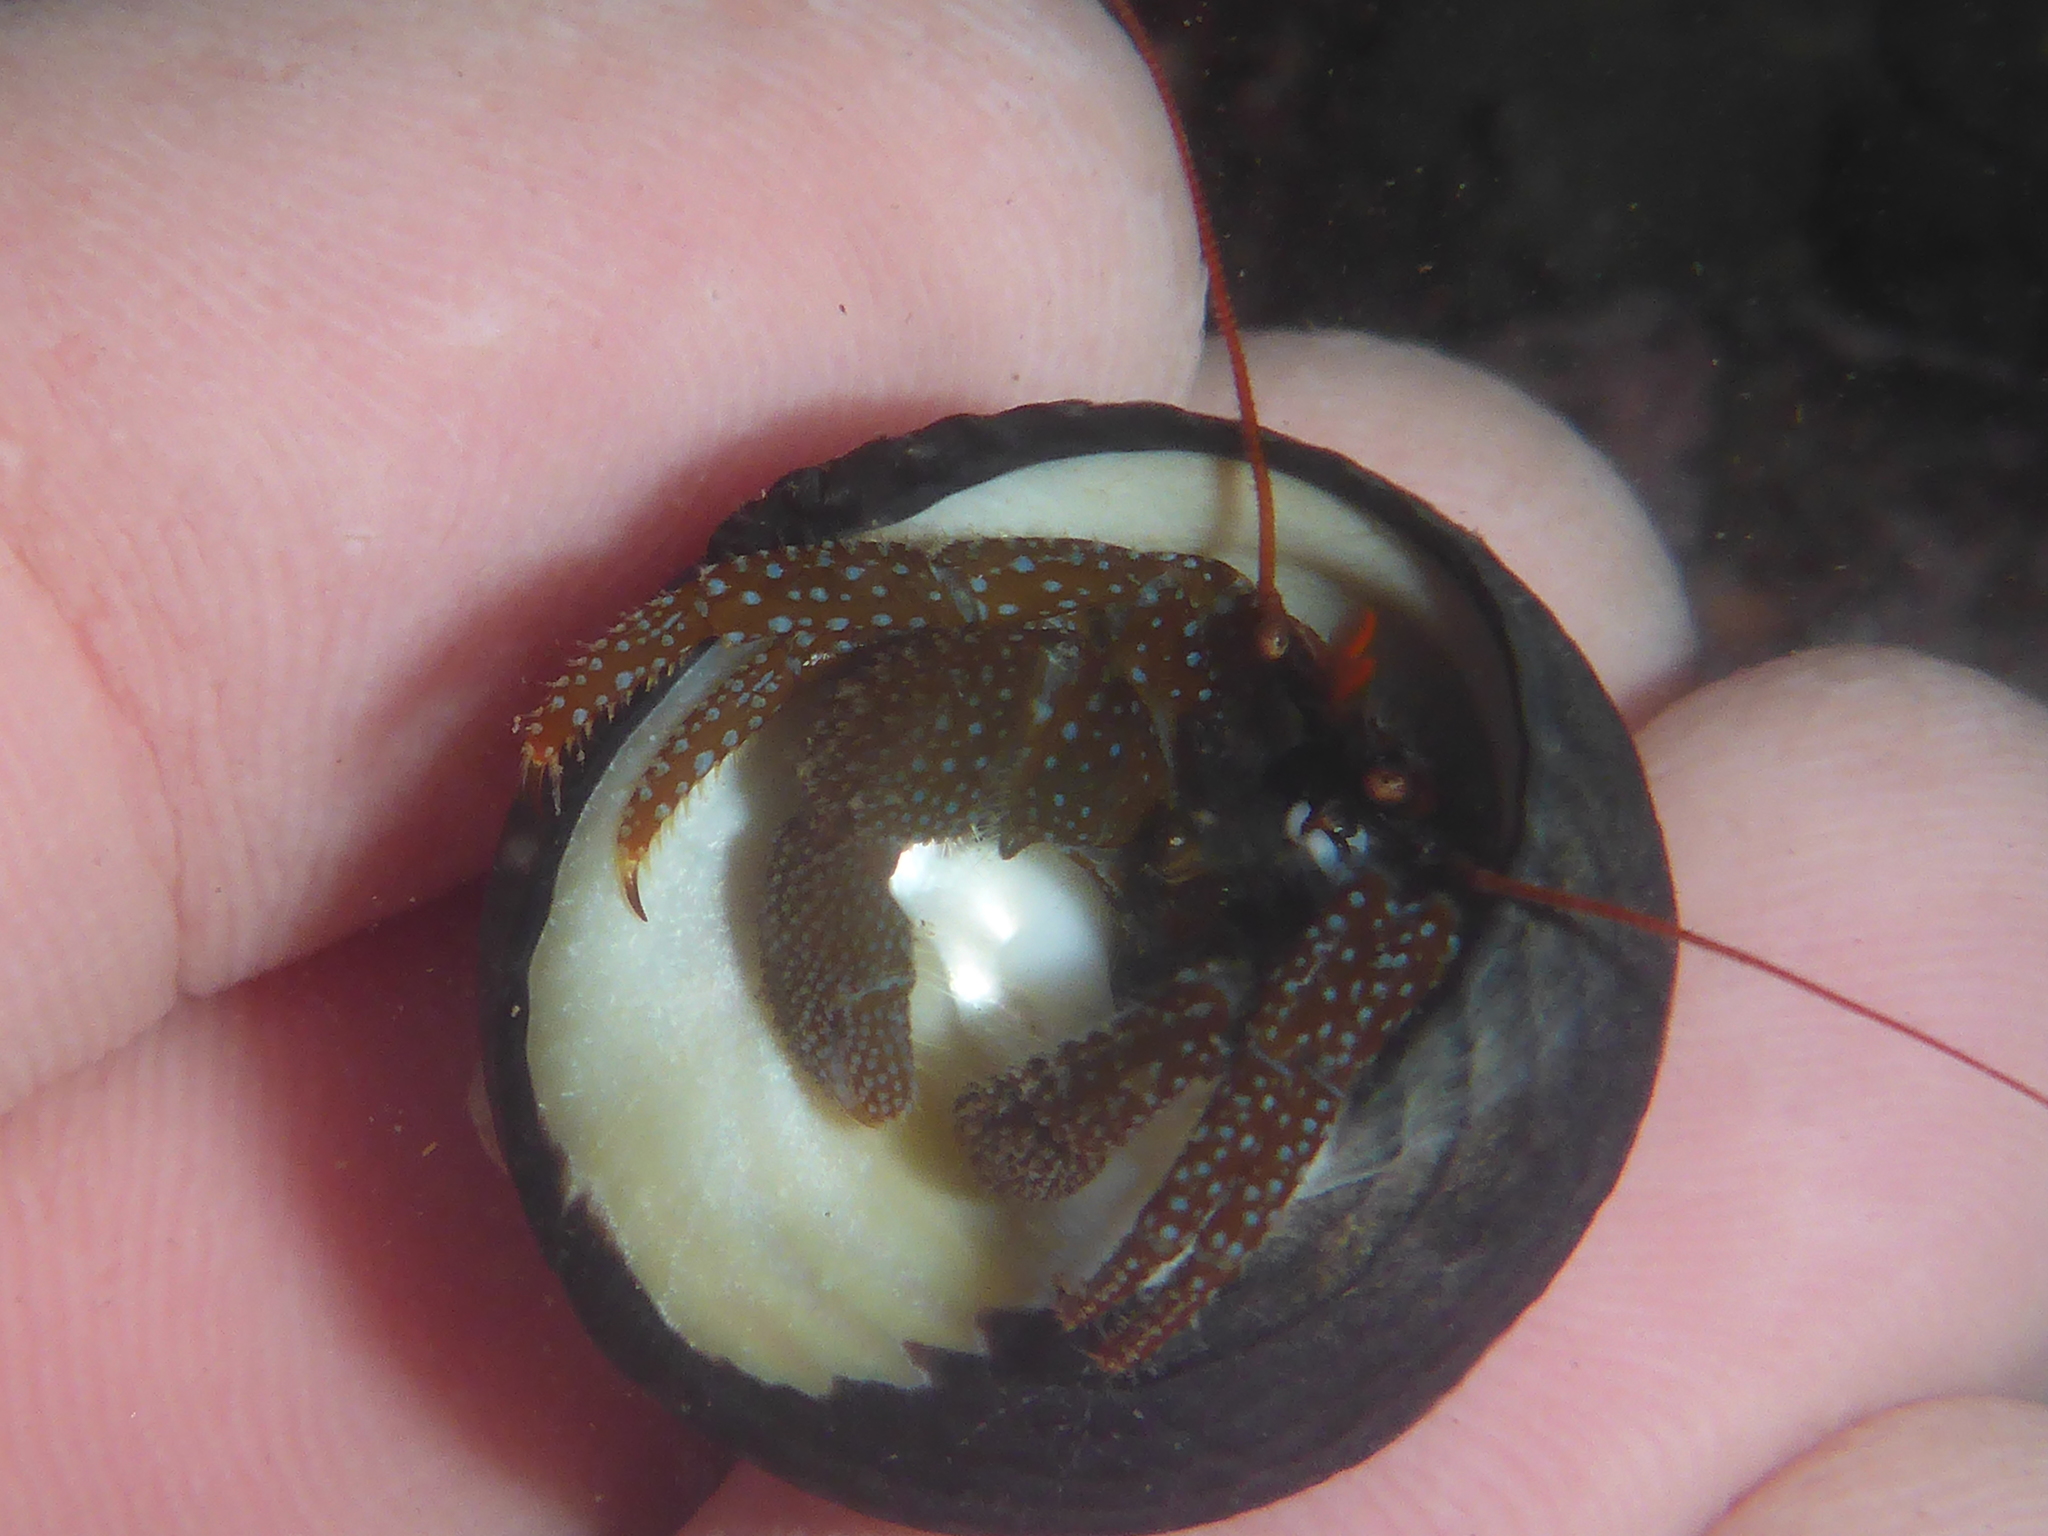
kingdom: Animalia
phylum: Arthropoda
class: Malacostraca
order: Decapoda
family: Paguridae
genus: Pagurus
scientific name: Pagurus granosimanus
